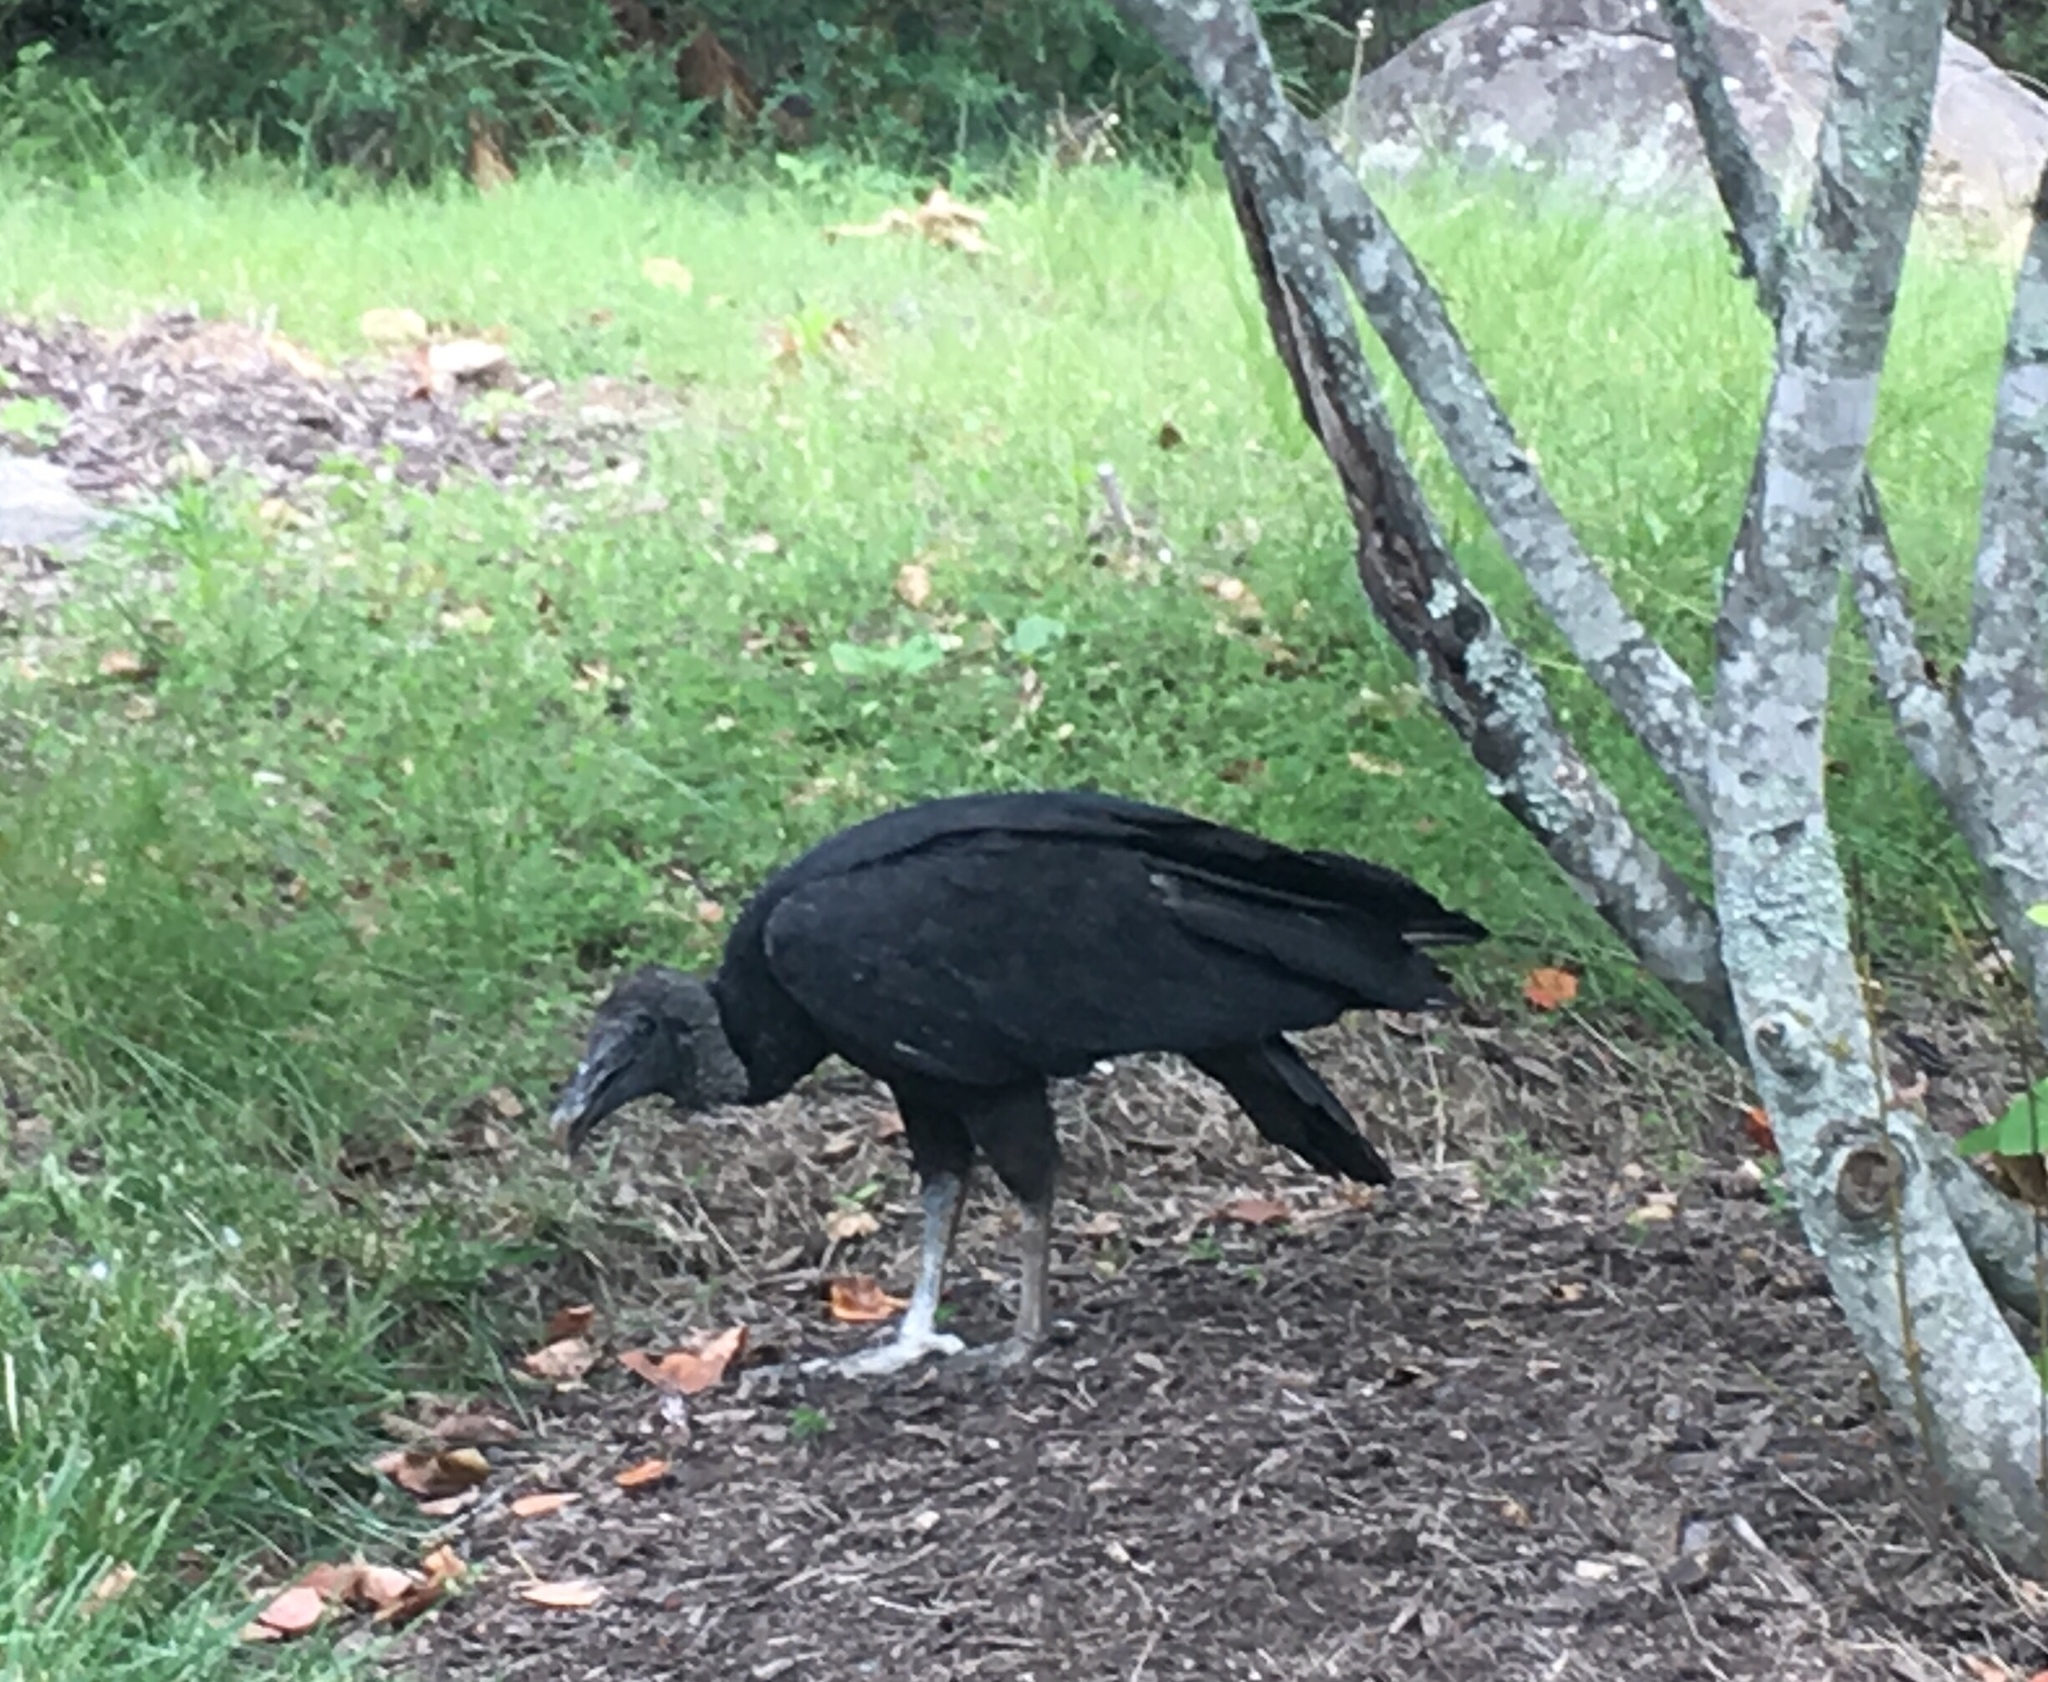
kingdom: Animalia
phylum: Chordata
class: Aves
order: Accipitriformes
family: Cathartidae
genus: Coragyps
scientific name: Coragyps atratus
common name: Black vulture
